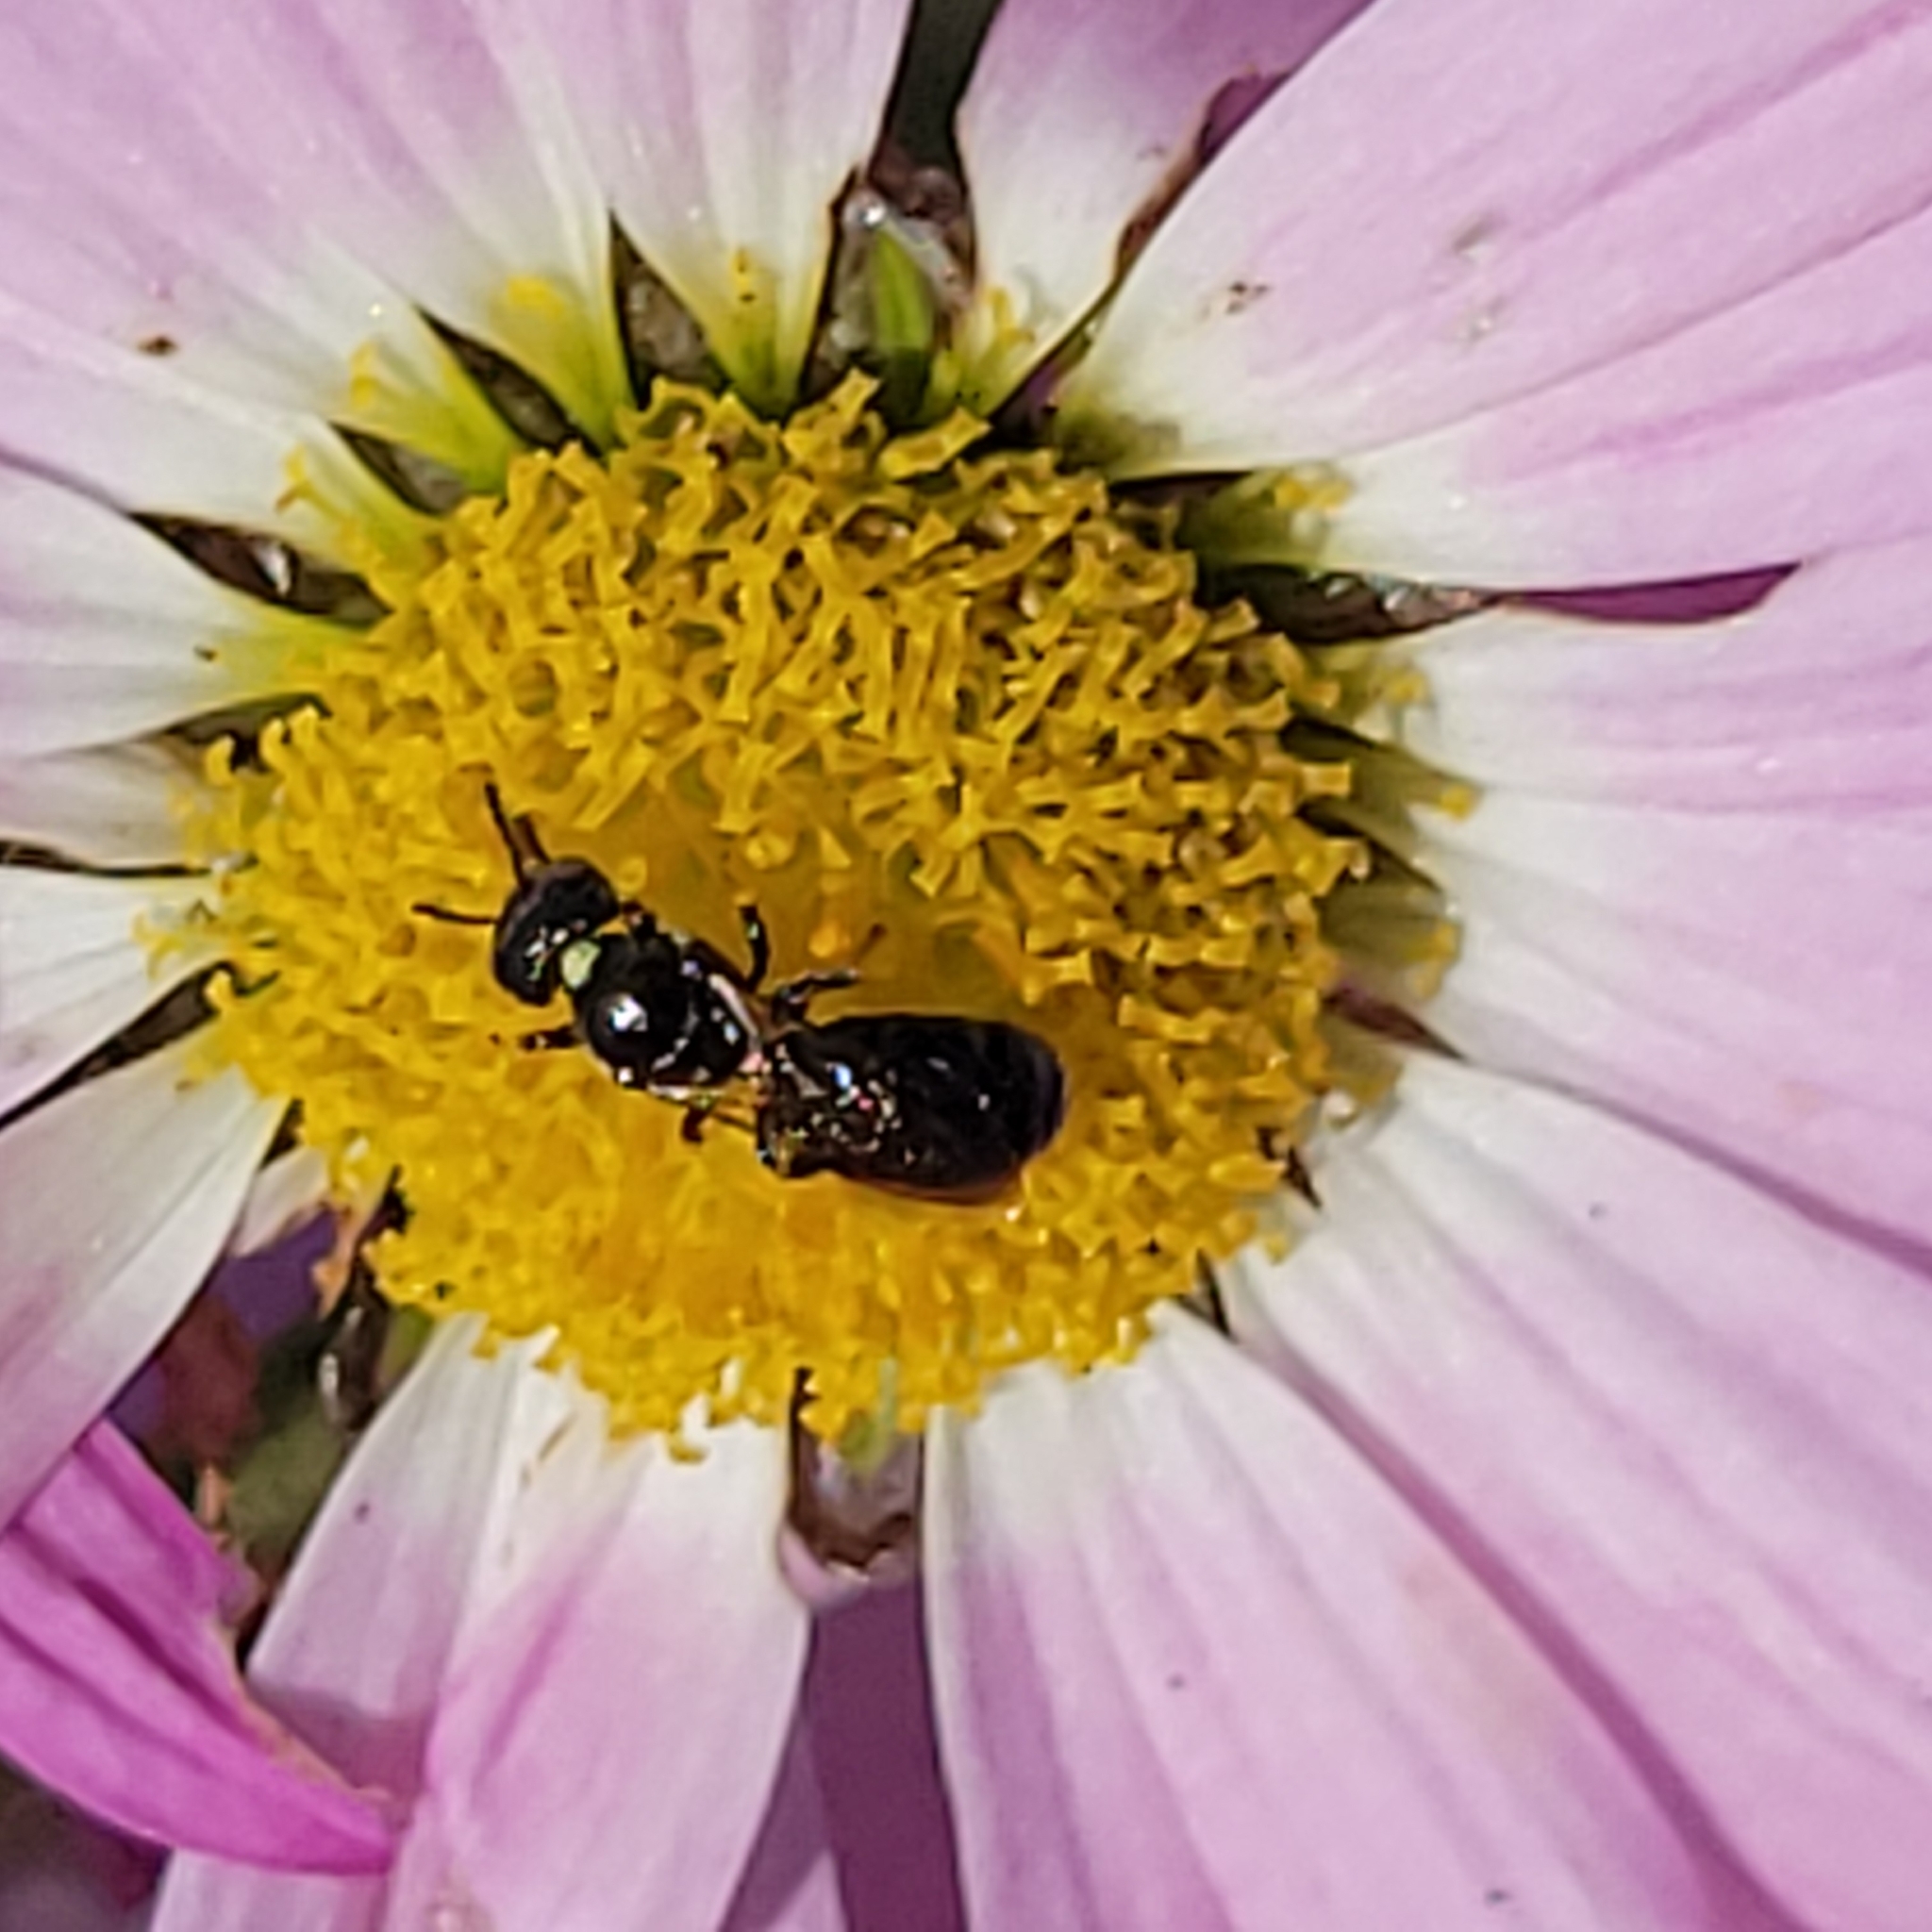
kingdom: Animalia
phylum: Arthropoda
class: Insecta
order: Hymenoptera
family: Apidae
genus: Zadontomerus
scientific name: Zadontomerus
